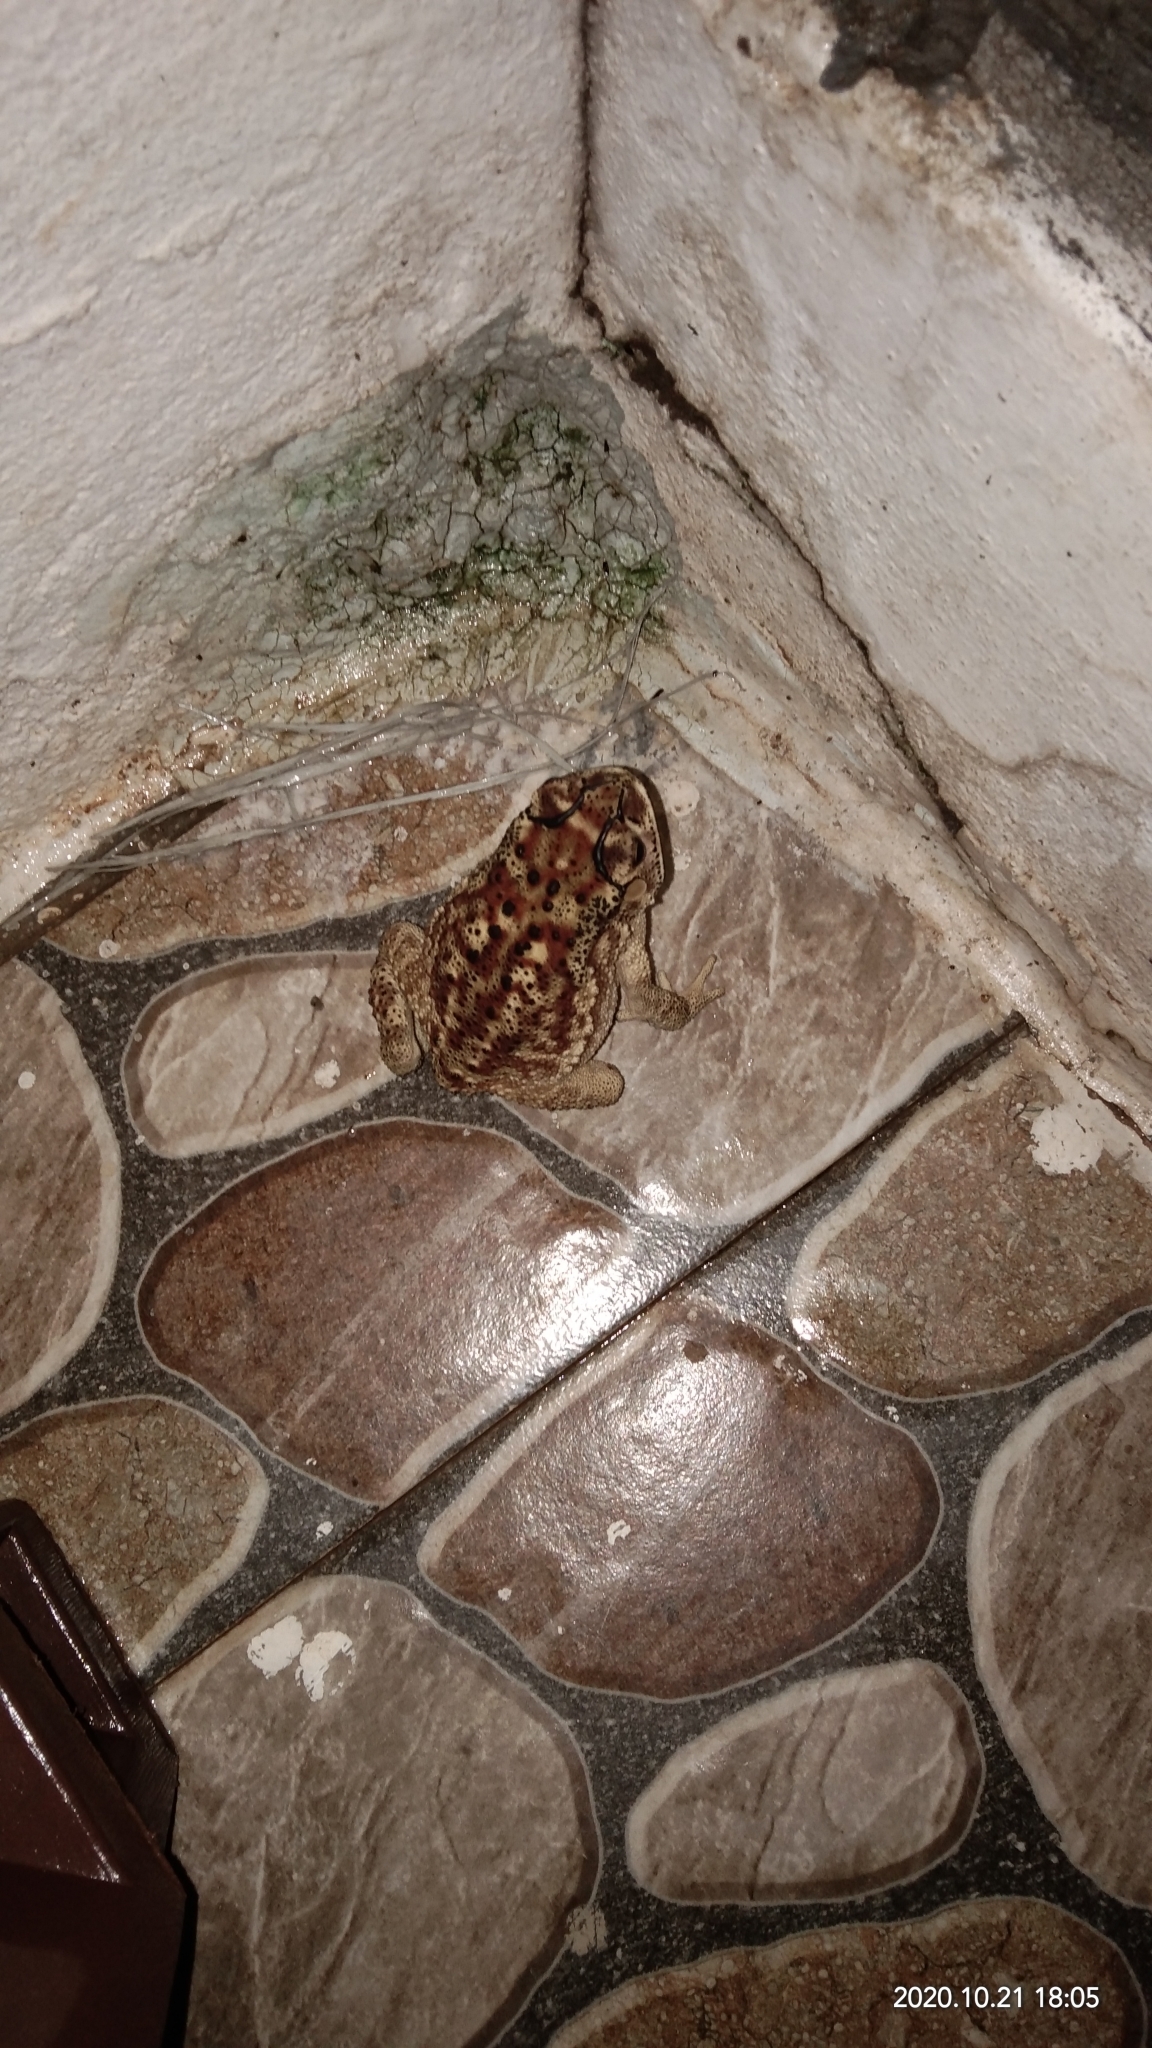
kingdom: Animalia
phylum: Chordata
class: Amphibia
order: Anura
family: Bufonidae
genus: Duttaphrynus
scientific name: Duttaphrynus melanostictus
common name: Common sunda toad
